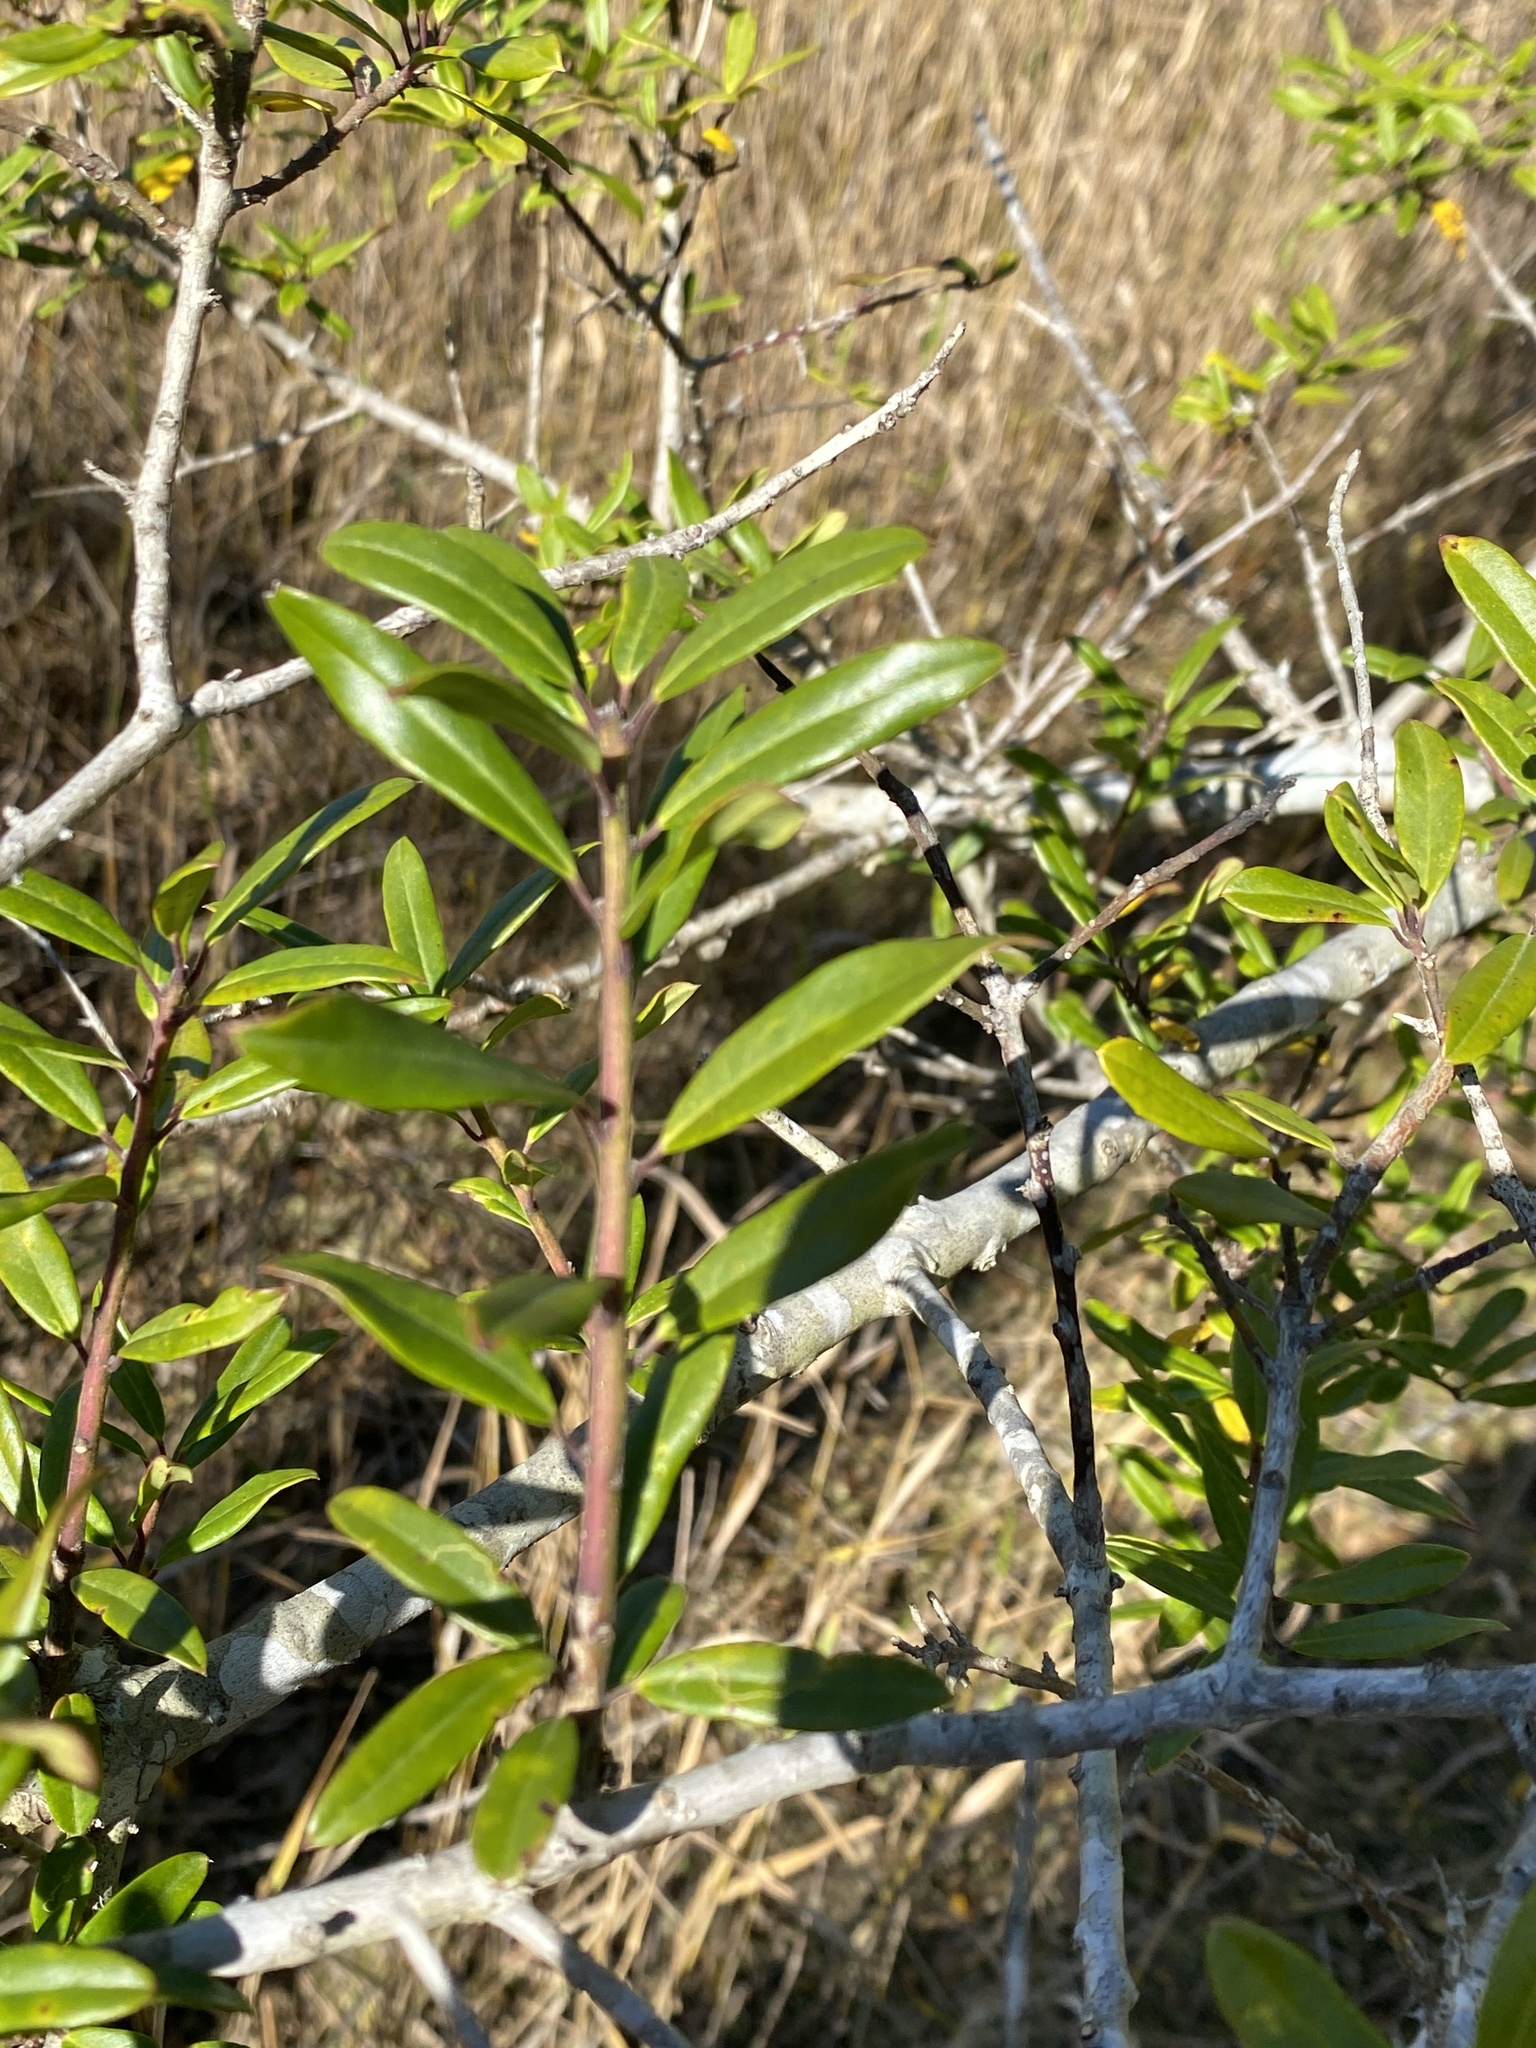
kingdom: Plantae
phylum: Tracheophyta
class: Magnoliopsida
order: Aquifoliales
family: Aquifoliaceae
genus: Ilex
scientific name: Ilex myrtifolia
